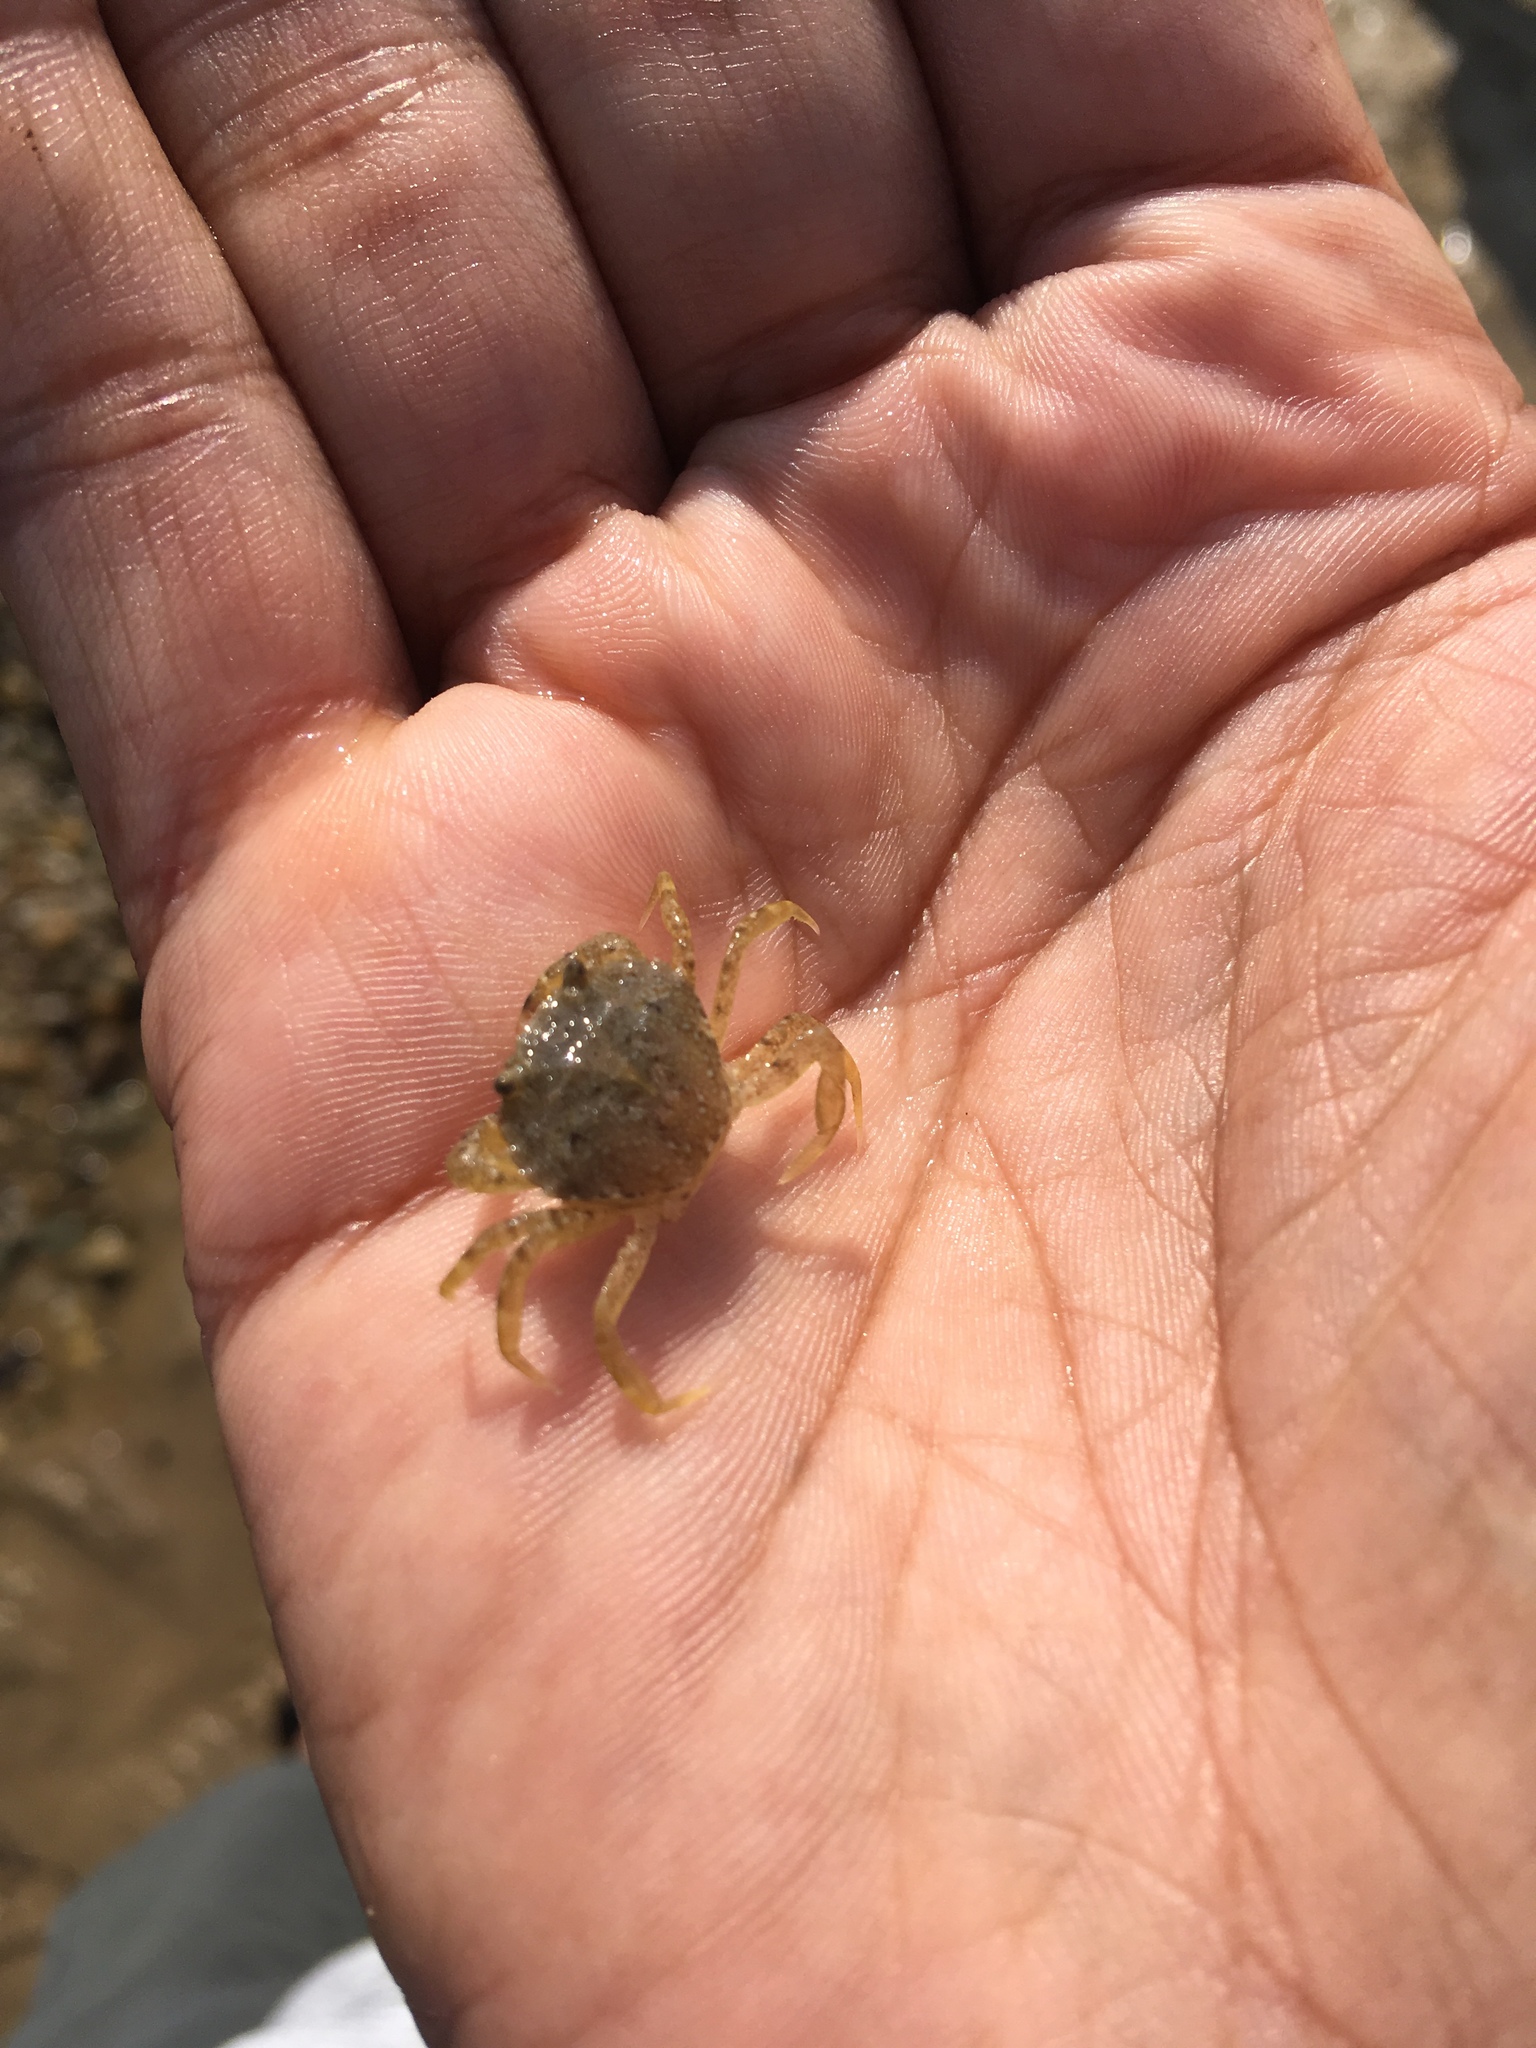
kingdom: Animalia
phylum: Arthropoda
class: Malacostraca
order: Decapoda
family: Carcinidae
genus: Carcinus
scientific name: Carcinus maenas
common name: European green crab
